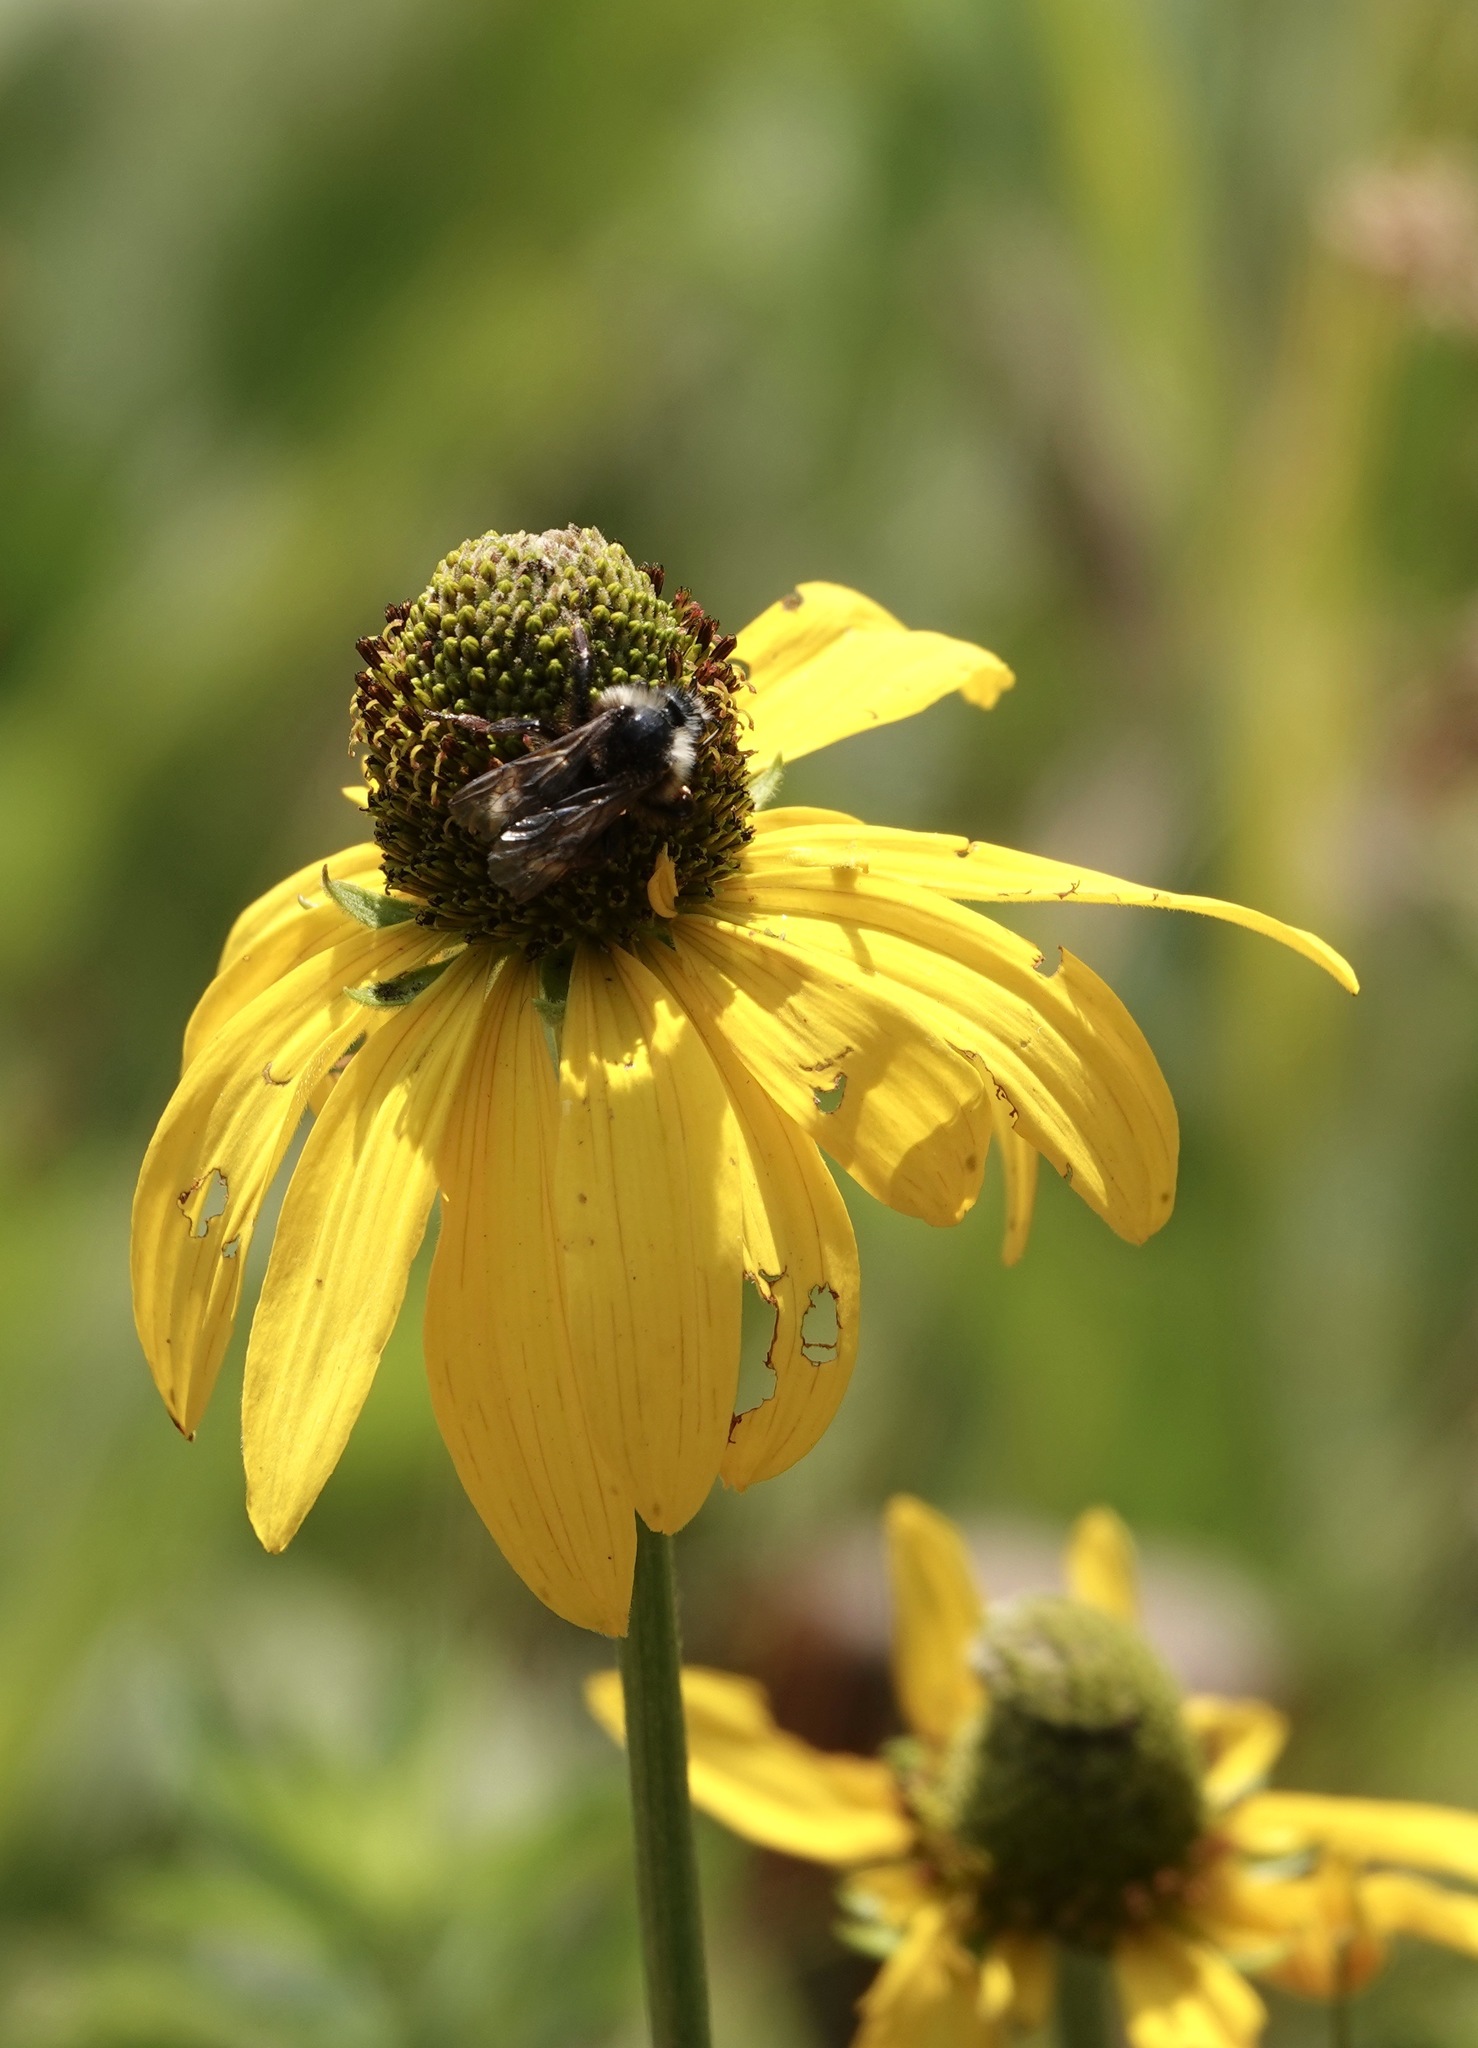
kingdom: Plantae
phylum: Tracheophyta
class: Magnoliopsida
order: Asterales
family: Asteraceae
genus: Rudbeckia
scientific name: Rudbeckia californica
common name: California coneflower
